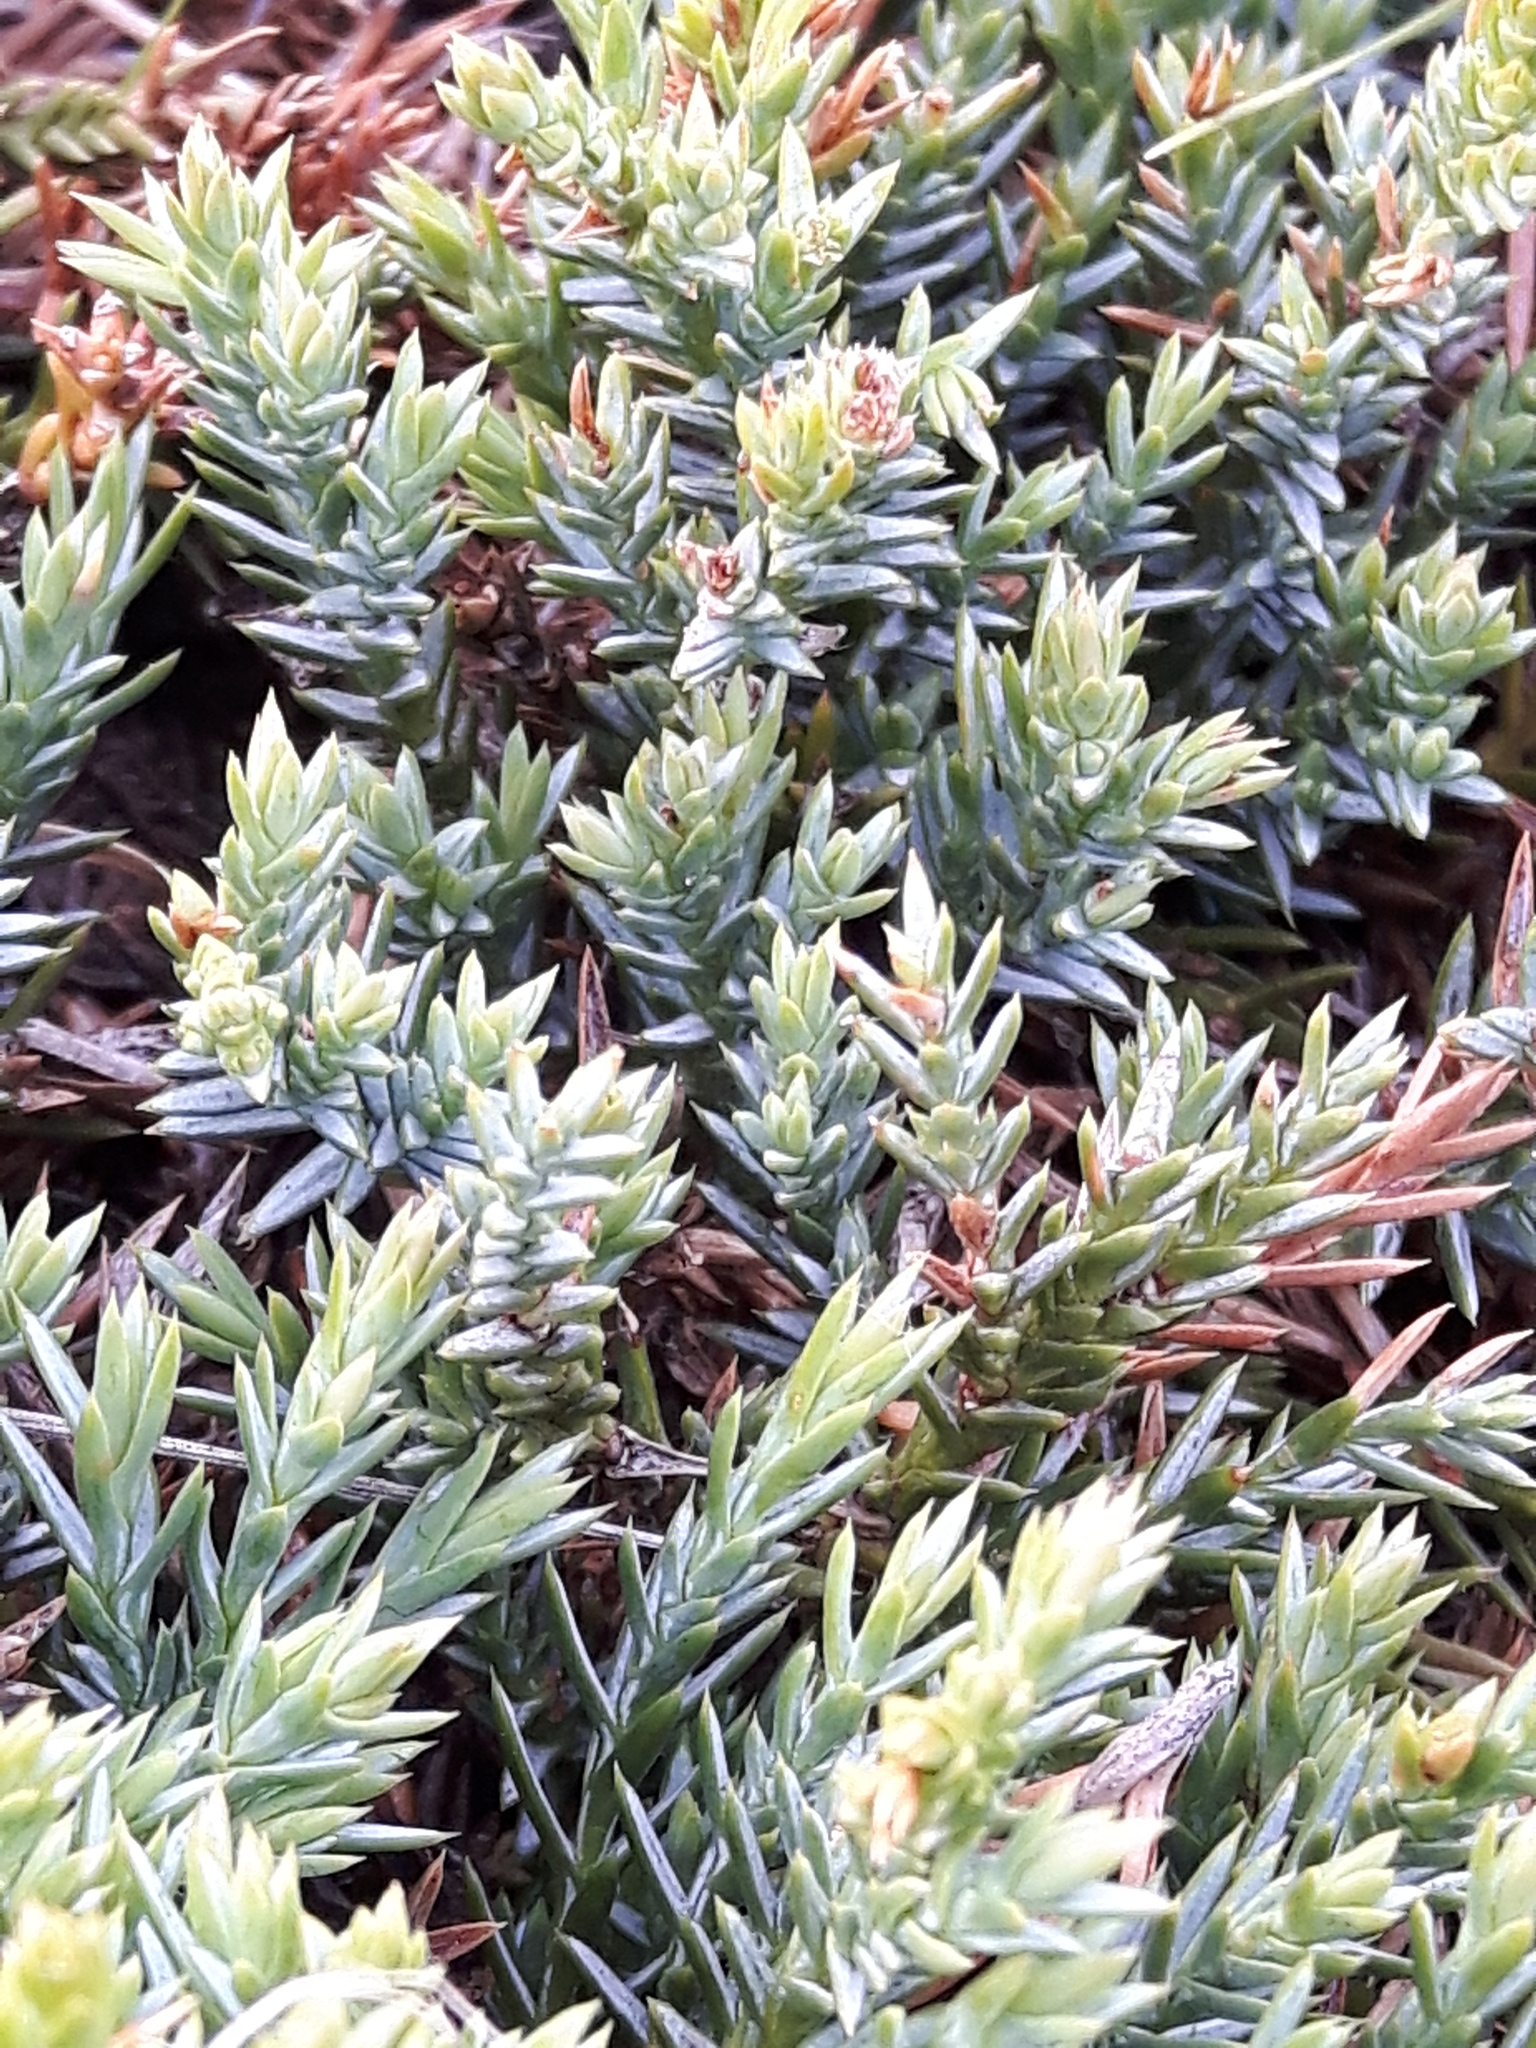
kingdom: Plantae
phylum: Tracheophyta
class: Pinopsida
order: Pinales
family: Cupressaceae
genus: Juniperus
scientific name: Juniperus horizontalis
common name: Creeping juniper
